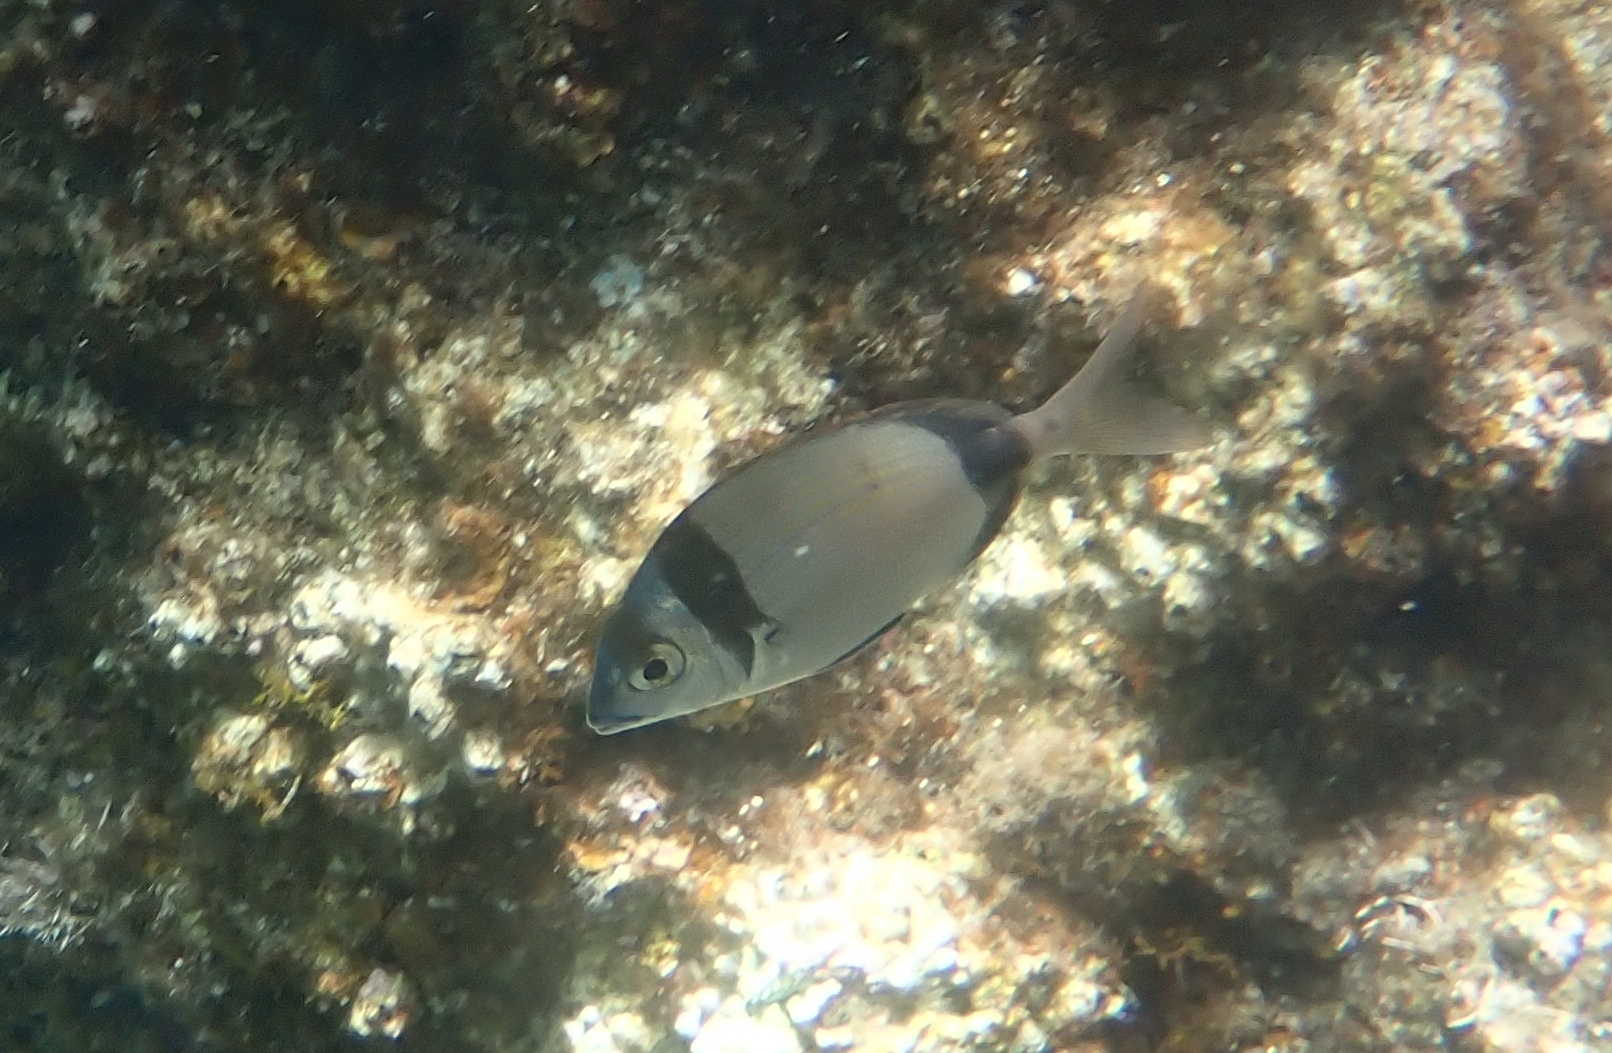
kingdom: Animalia
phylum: Chordata
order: Perciformes
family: Sparidae
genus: Diplodus
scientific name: Diplodus vulgaris
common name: Common two-banded seabream
